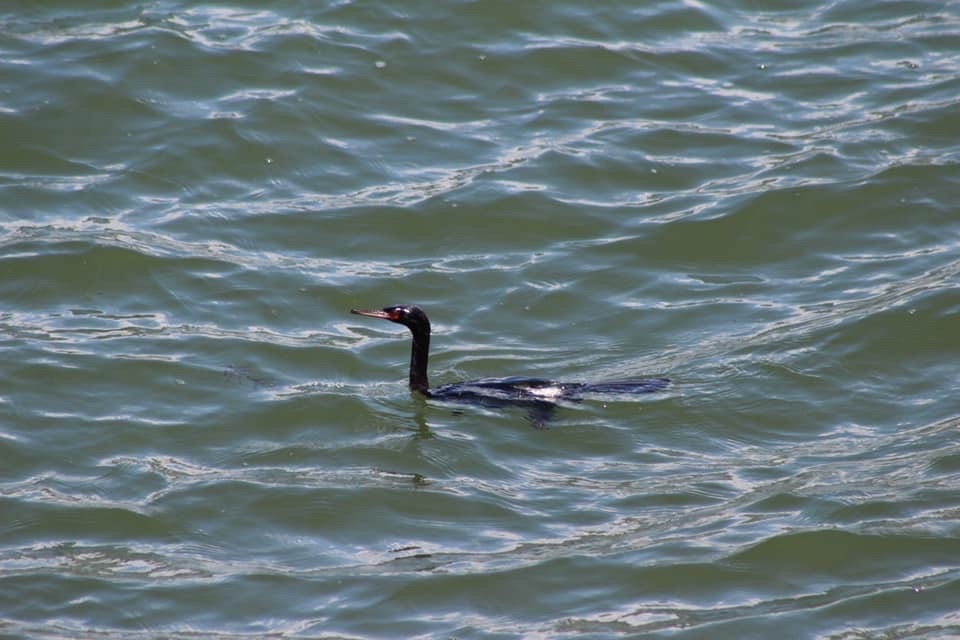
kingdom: Animalia
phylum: Chordata
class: Aves
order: Suliformes
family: Phalacrocoracidae
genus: Phalacrocorax
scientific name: Phalacrocorax pelagicus
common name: Pelagic cormorant
